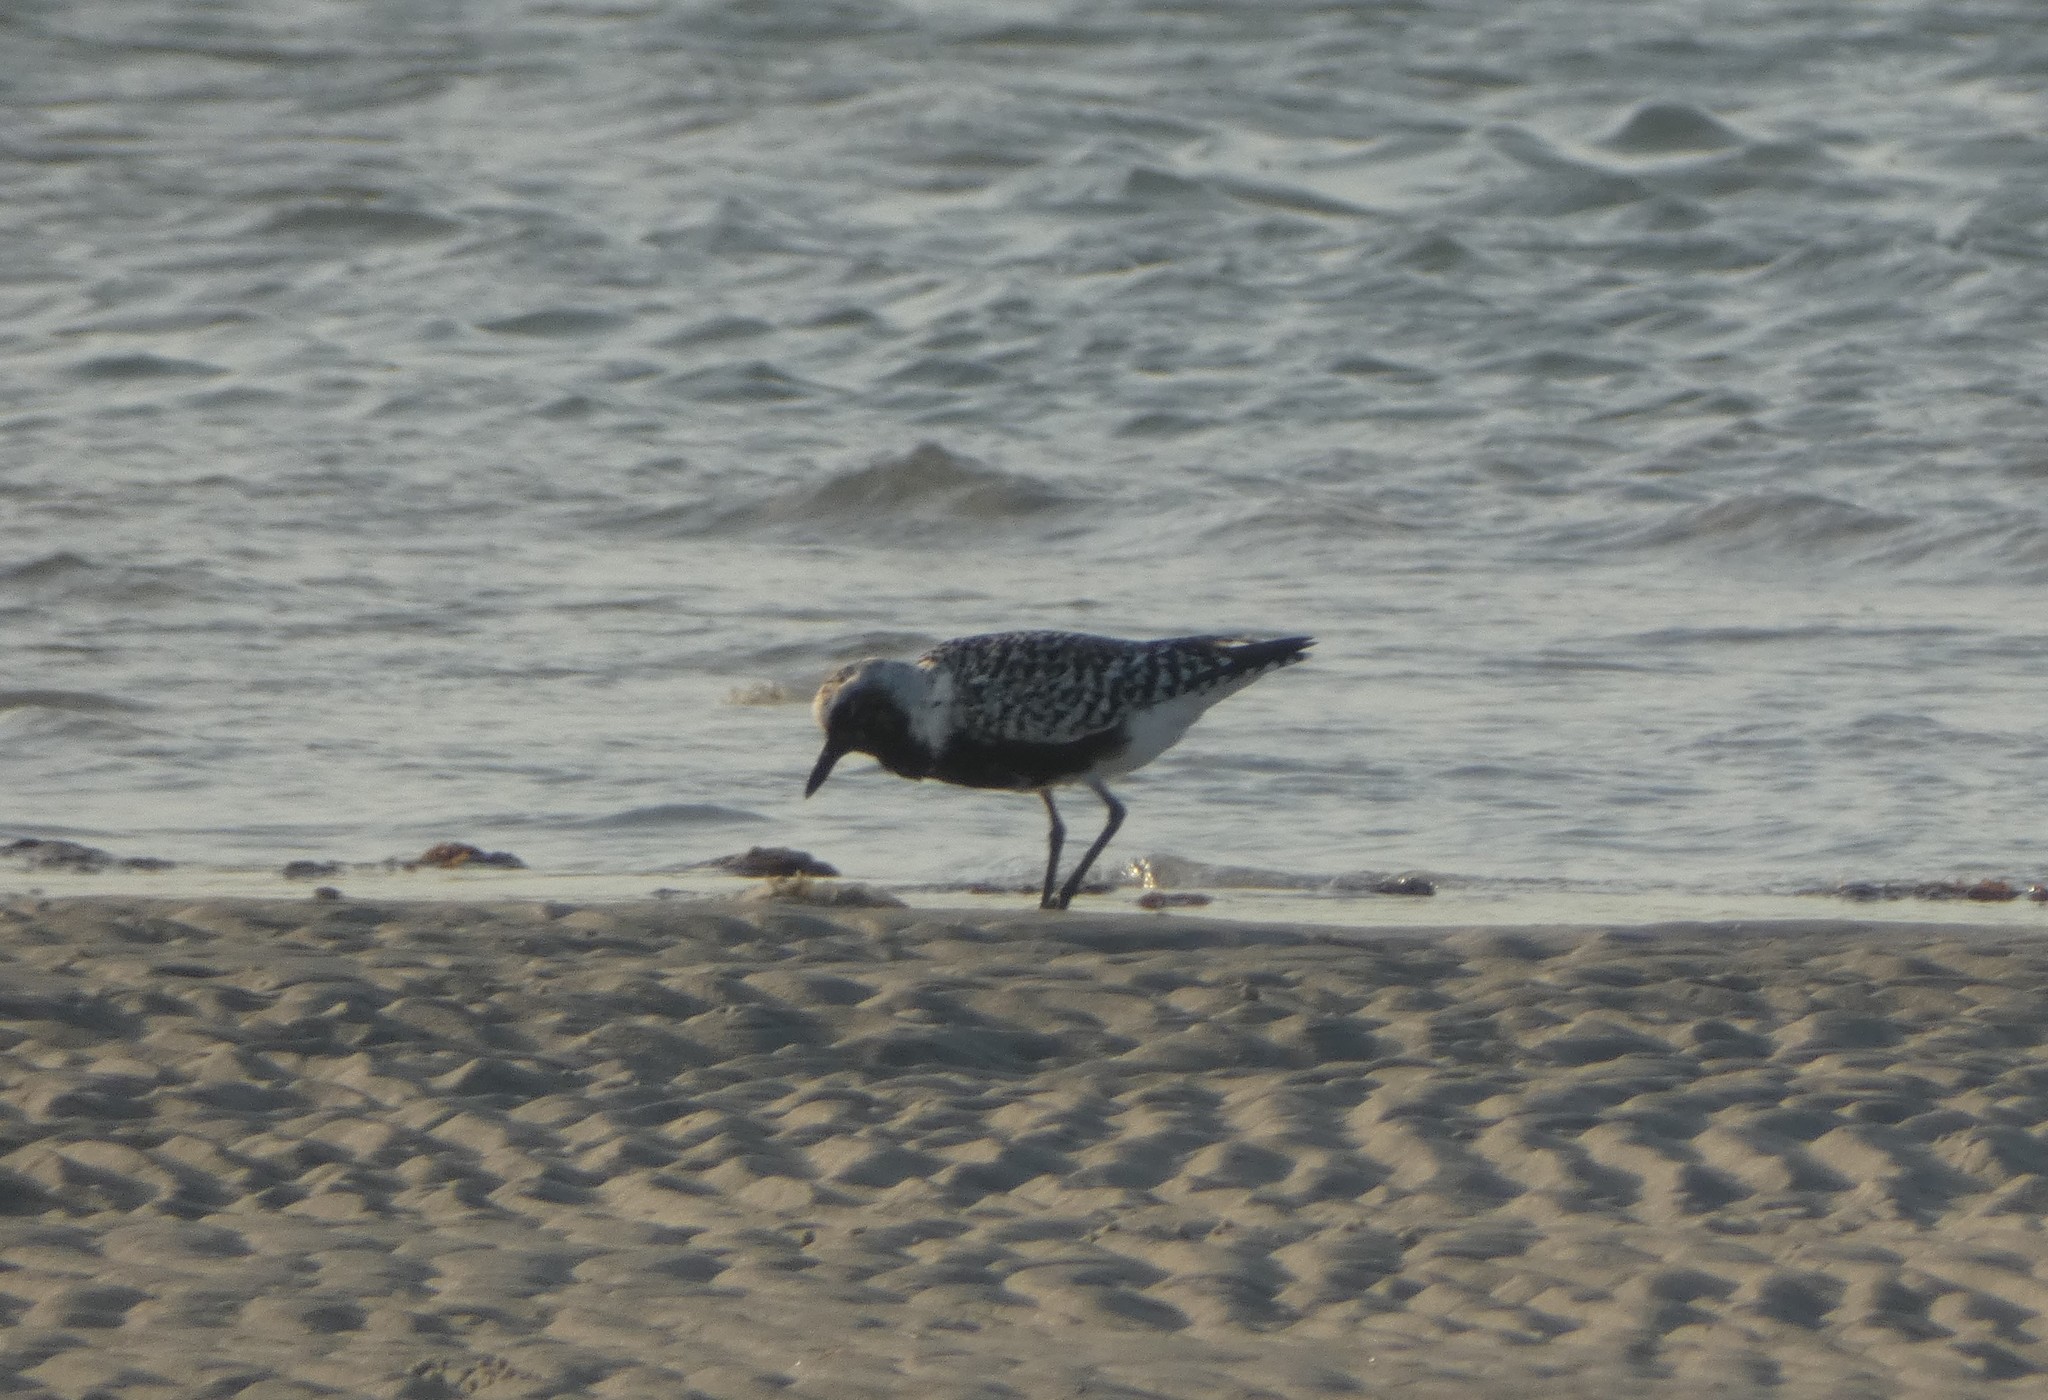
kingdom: Animalia
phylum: Chordata
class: Aves
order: Charadriiformes
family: Charadriidae
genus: Pluvialis
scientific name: Pluvialis squatarola
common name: Grey plover
